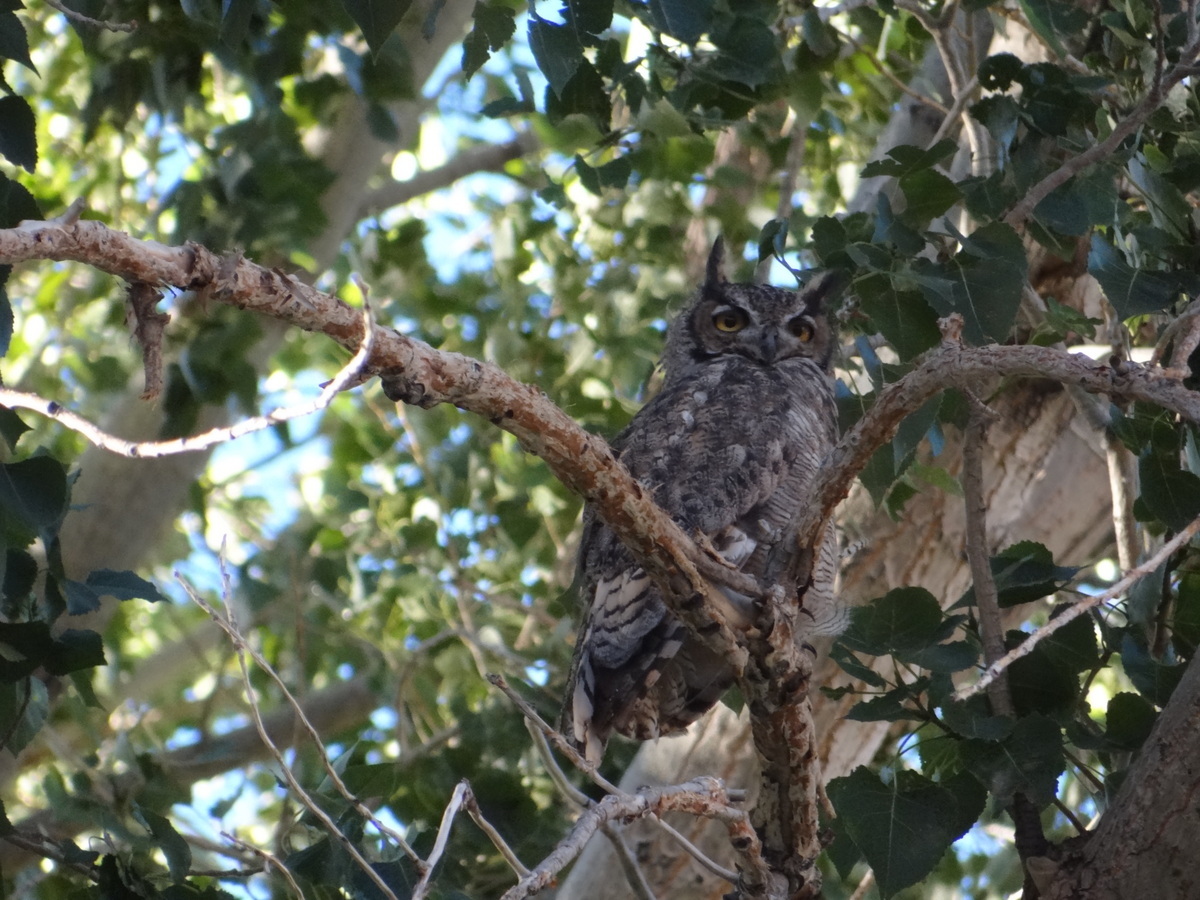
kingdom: Animalia
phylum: Chordata
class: Aves
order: Strigiformes
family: Strigidae
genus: Bubo
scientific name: Bubo magellanicus
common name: Lesser horned owl
